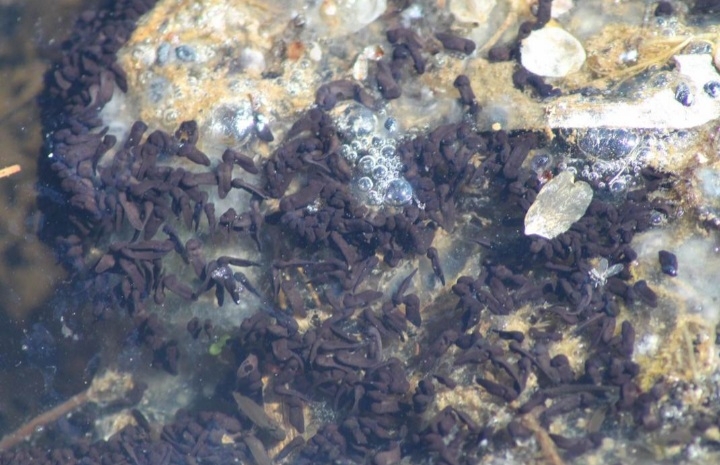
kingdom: Animalia
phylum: Chordata
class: Amphibia
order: Anura
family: Bufonidae
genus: Bufo
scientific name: Bufo bufo
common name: Common toad
